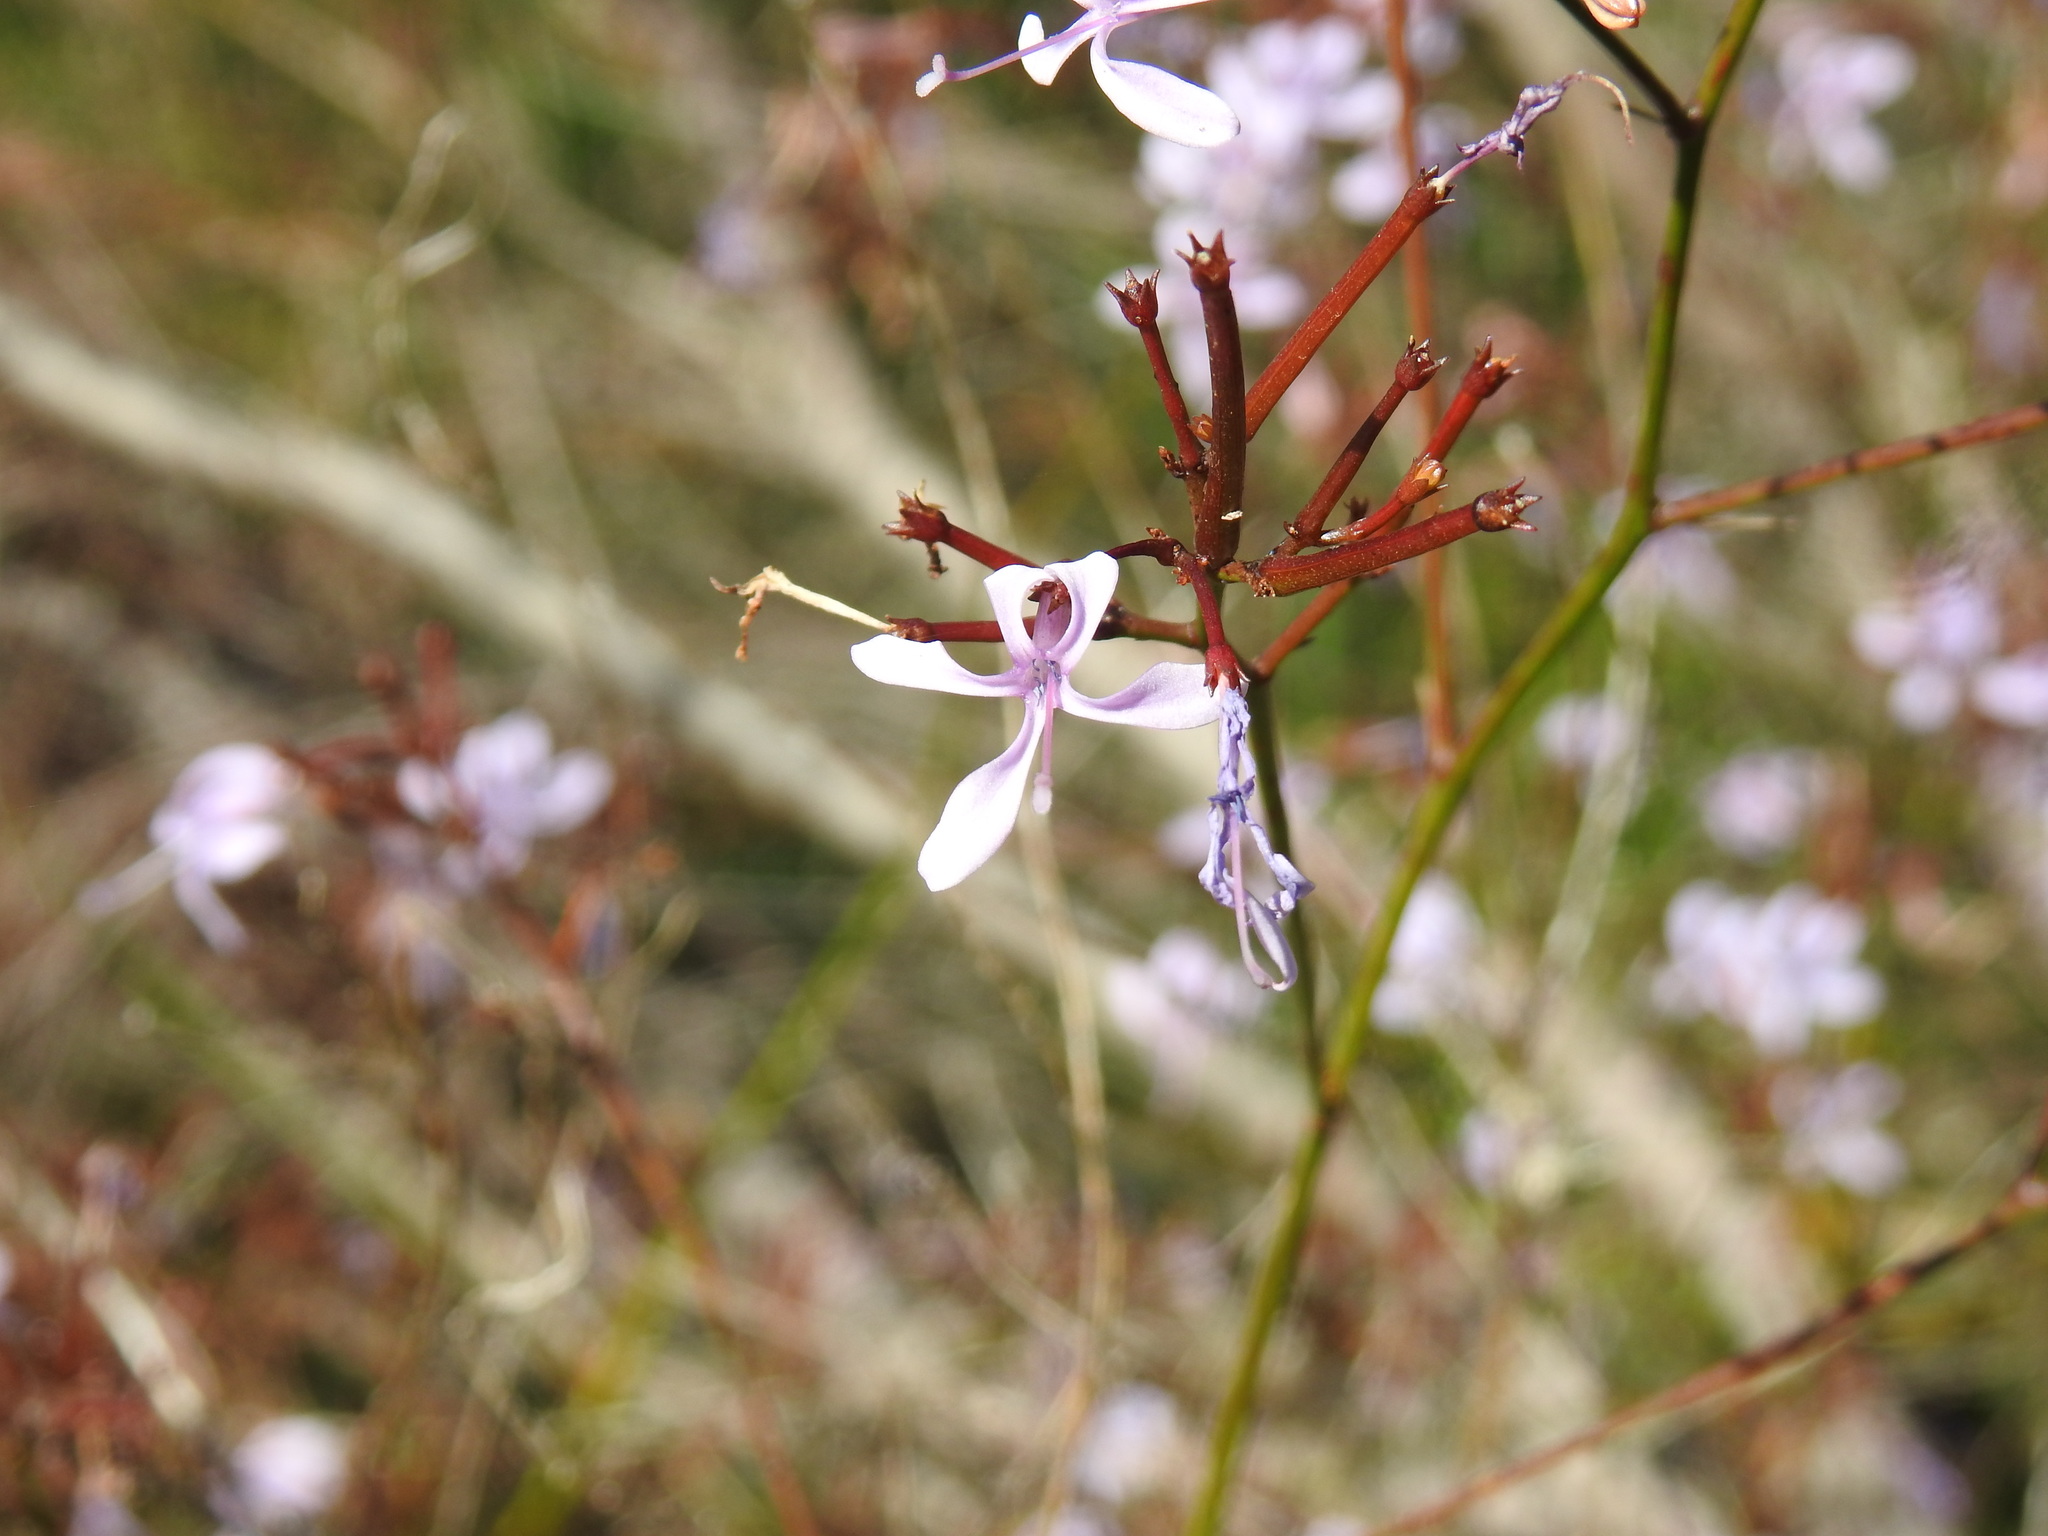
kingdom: Plantae
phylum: Tracheophyta
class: Magnoliopsida
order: Asterales
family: Campanulaceae
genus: Prismatocarpus
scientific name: Prismatocarpus diffusus
